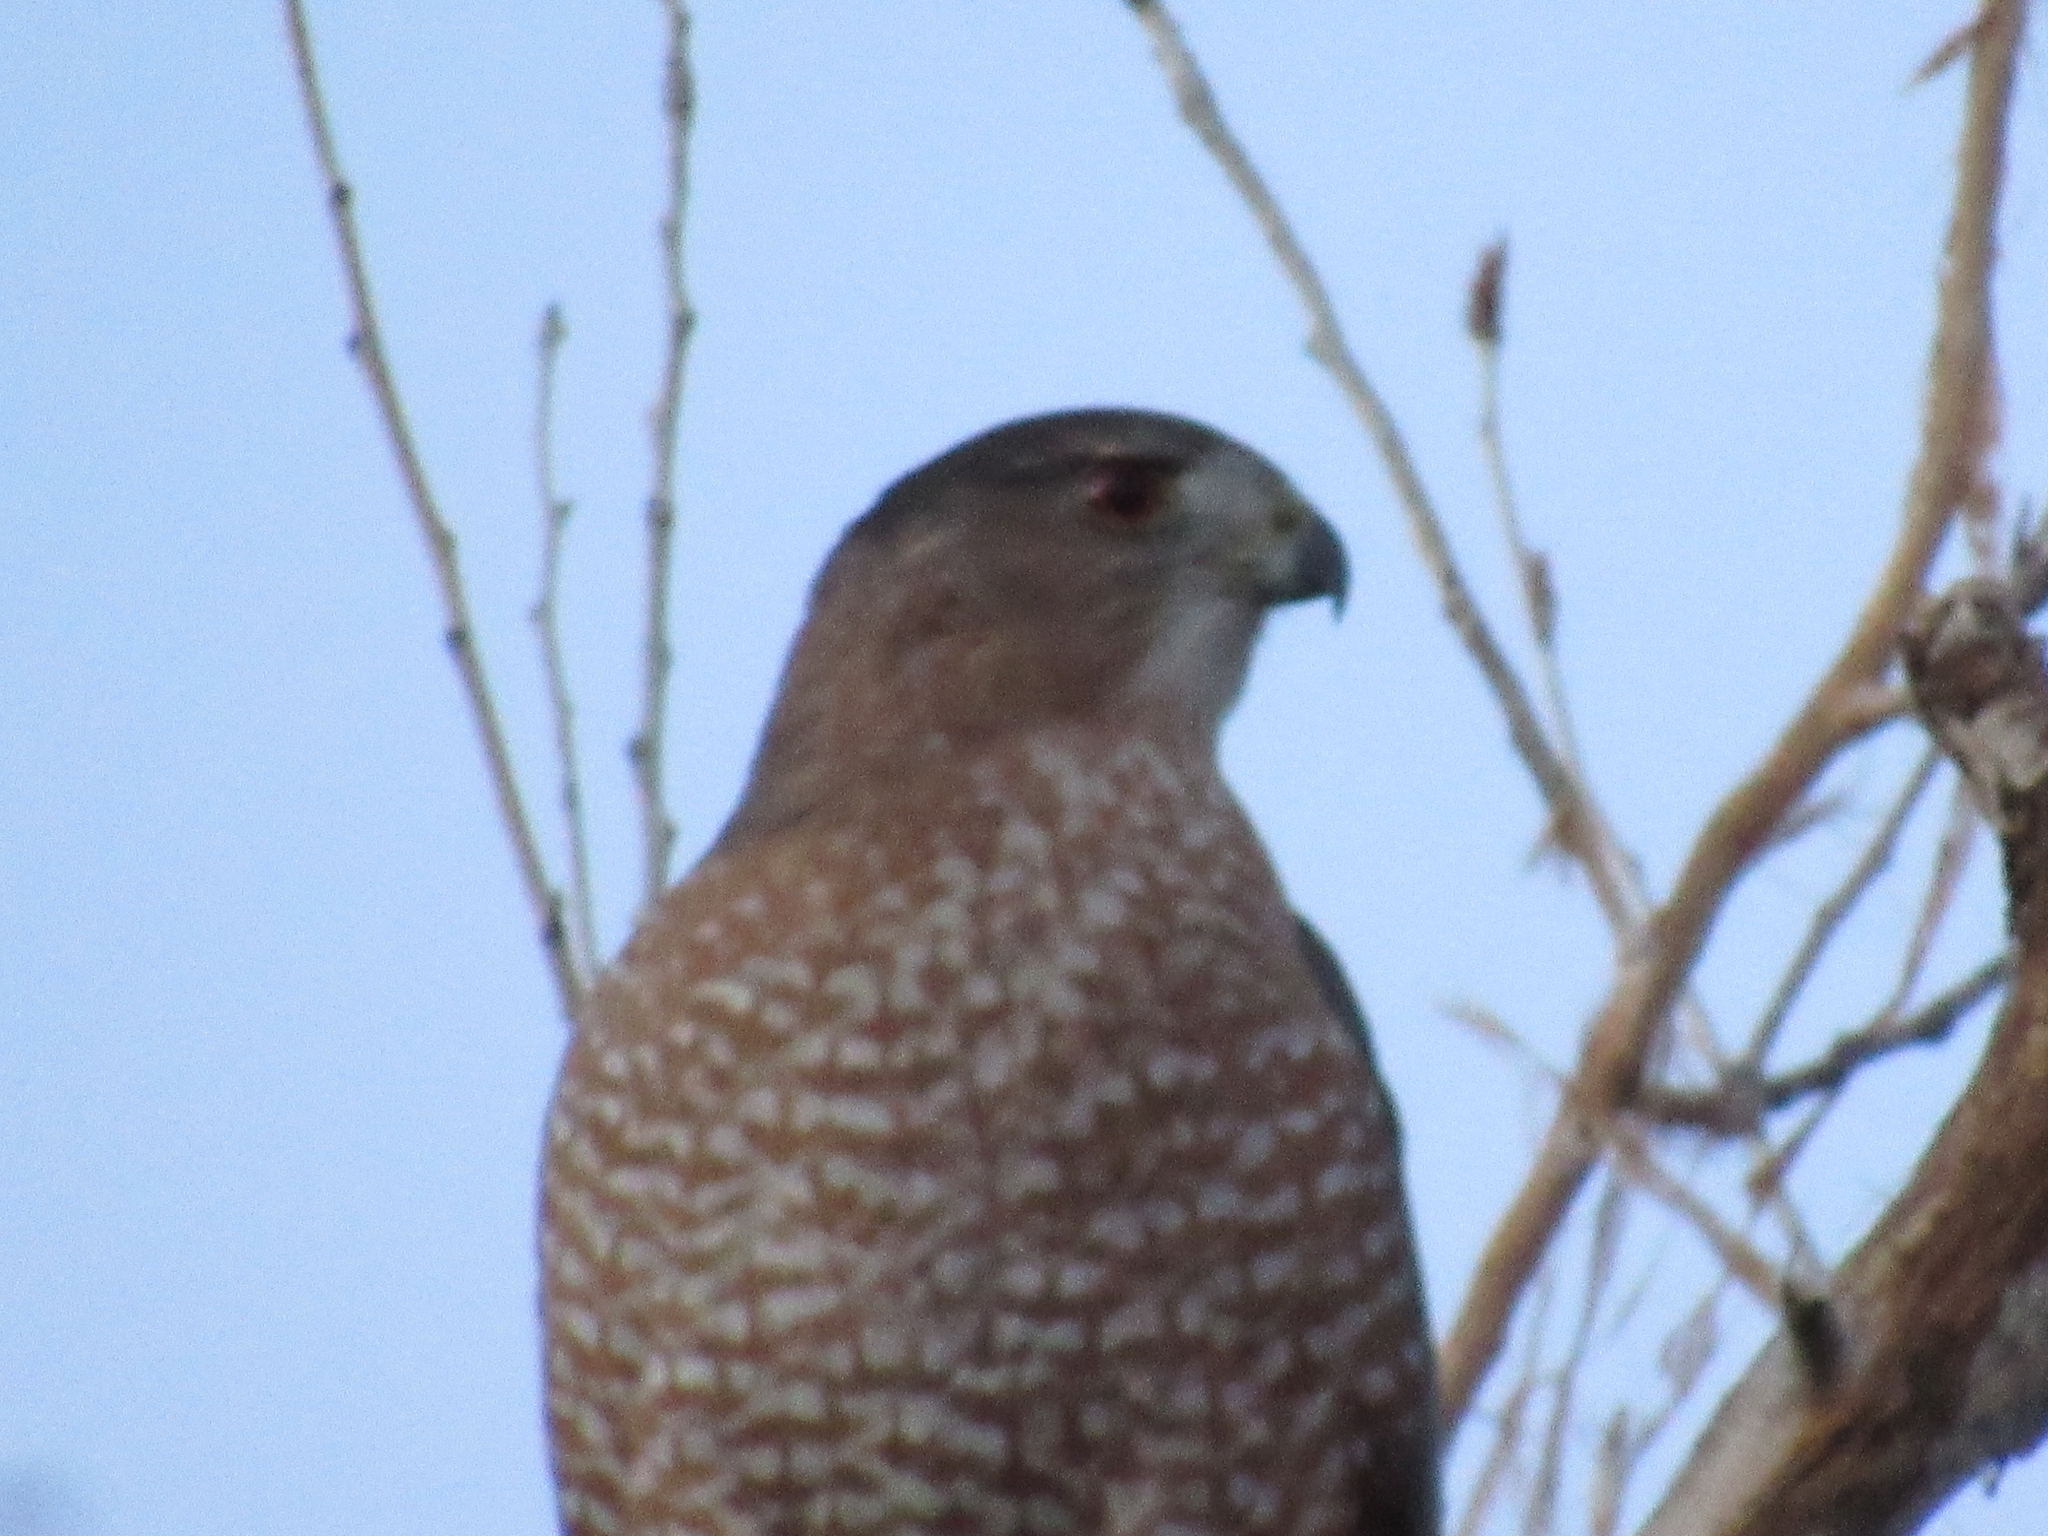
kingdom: Animalia
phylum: Chordata
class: Aves
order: Accipitriformes
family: Accipitridae
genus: Accipiter
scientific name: Accipiter cooperii
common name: Cooper's hawk
